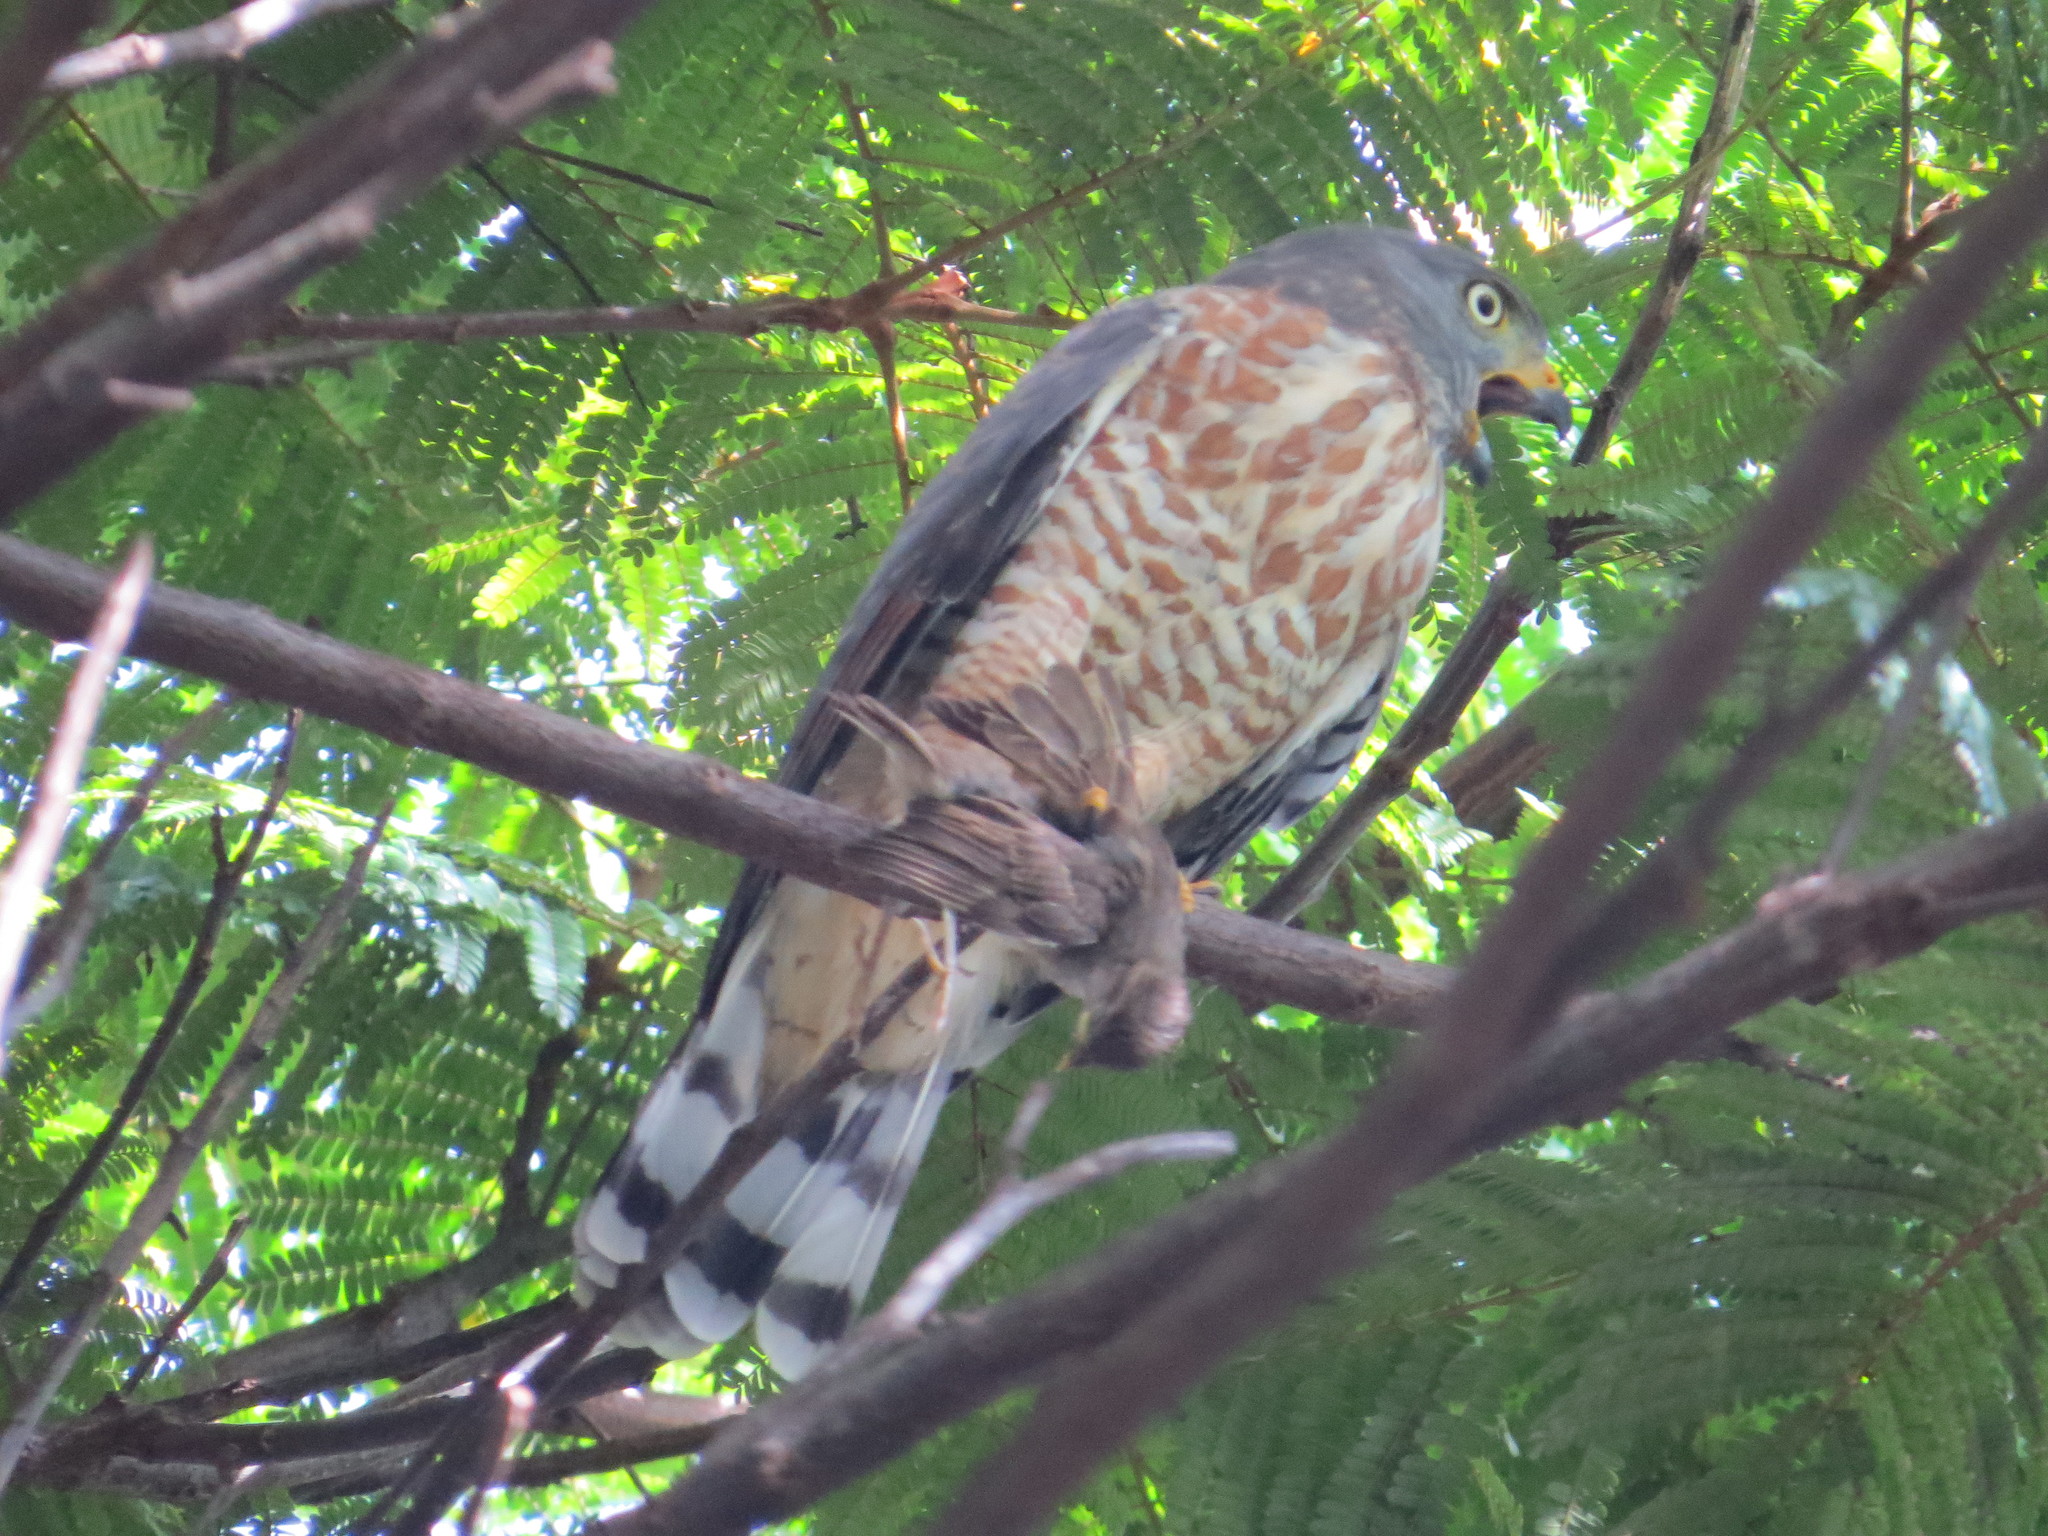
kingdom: Animalia
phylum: Chordata
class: Aves
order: Accipitriformes
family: Accipitridae
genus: Rupornis
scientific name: Rupornis magnirostris
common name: Roadside hawk
